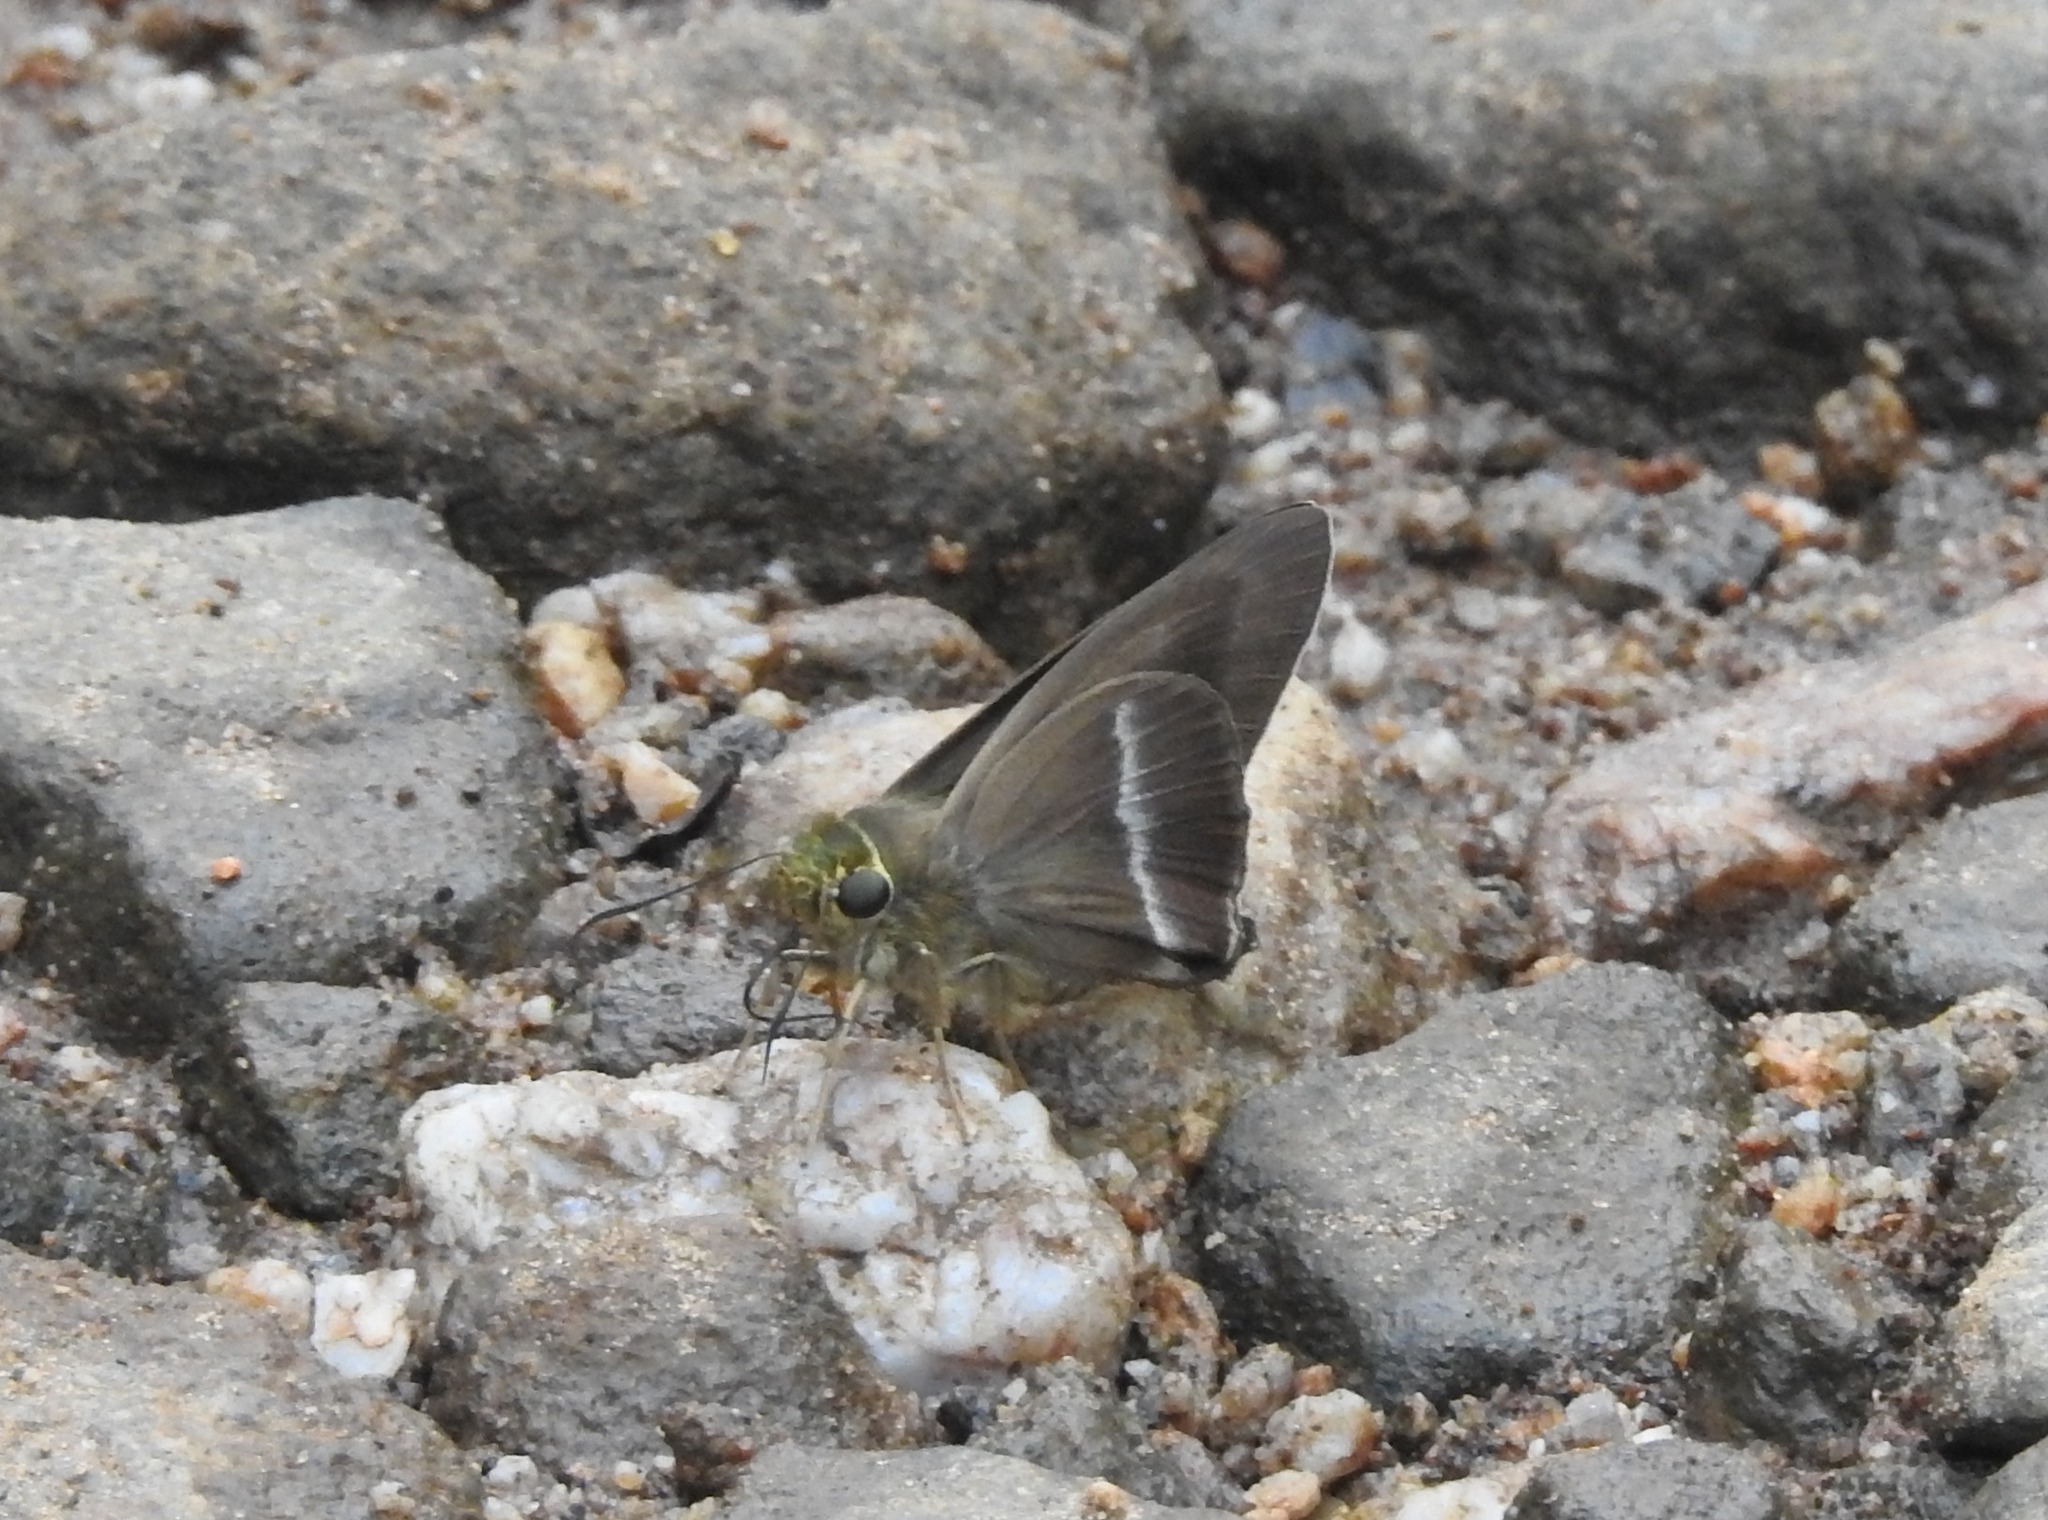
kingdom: Animalia
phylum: Arthropoda
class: Insecta
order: Lepidoptera
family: Hesperiidae
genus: Hasora
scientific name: Hasora chromus
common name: Common banded awl
